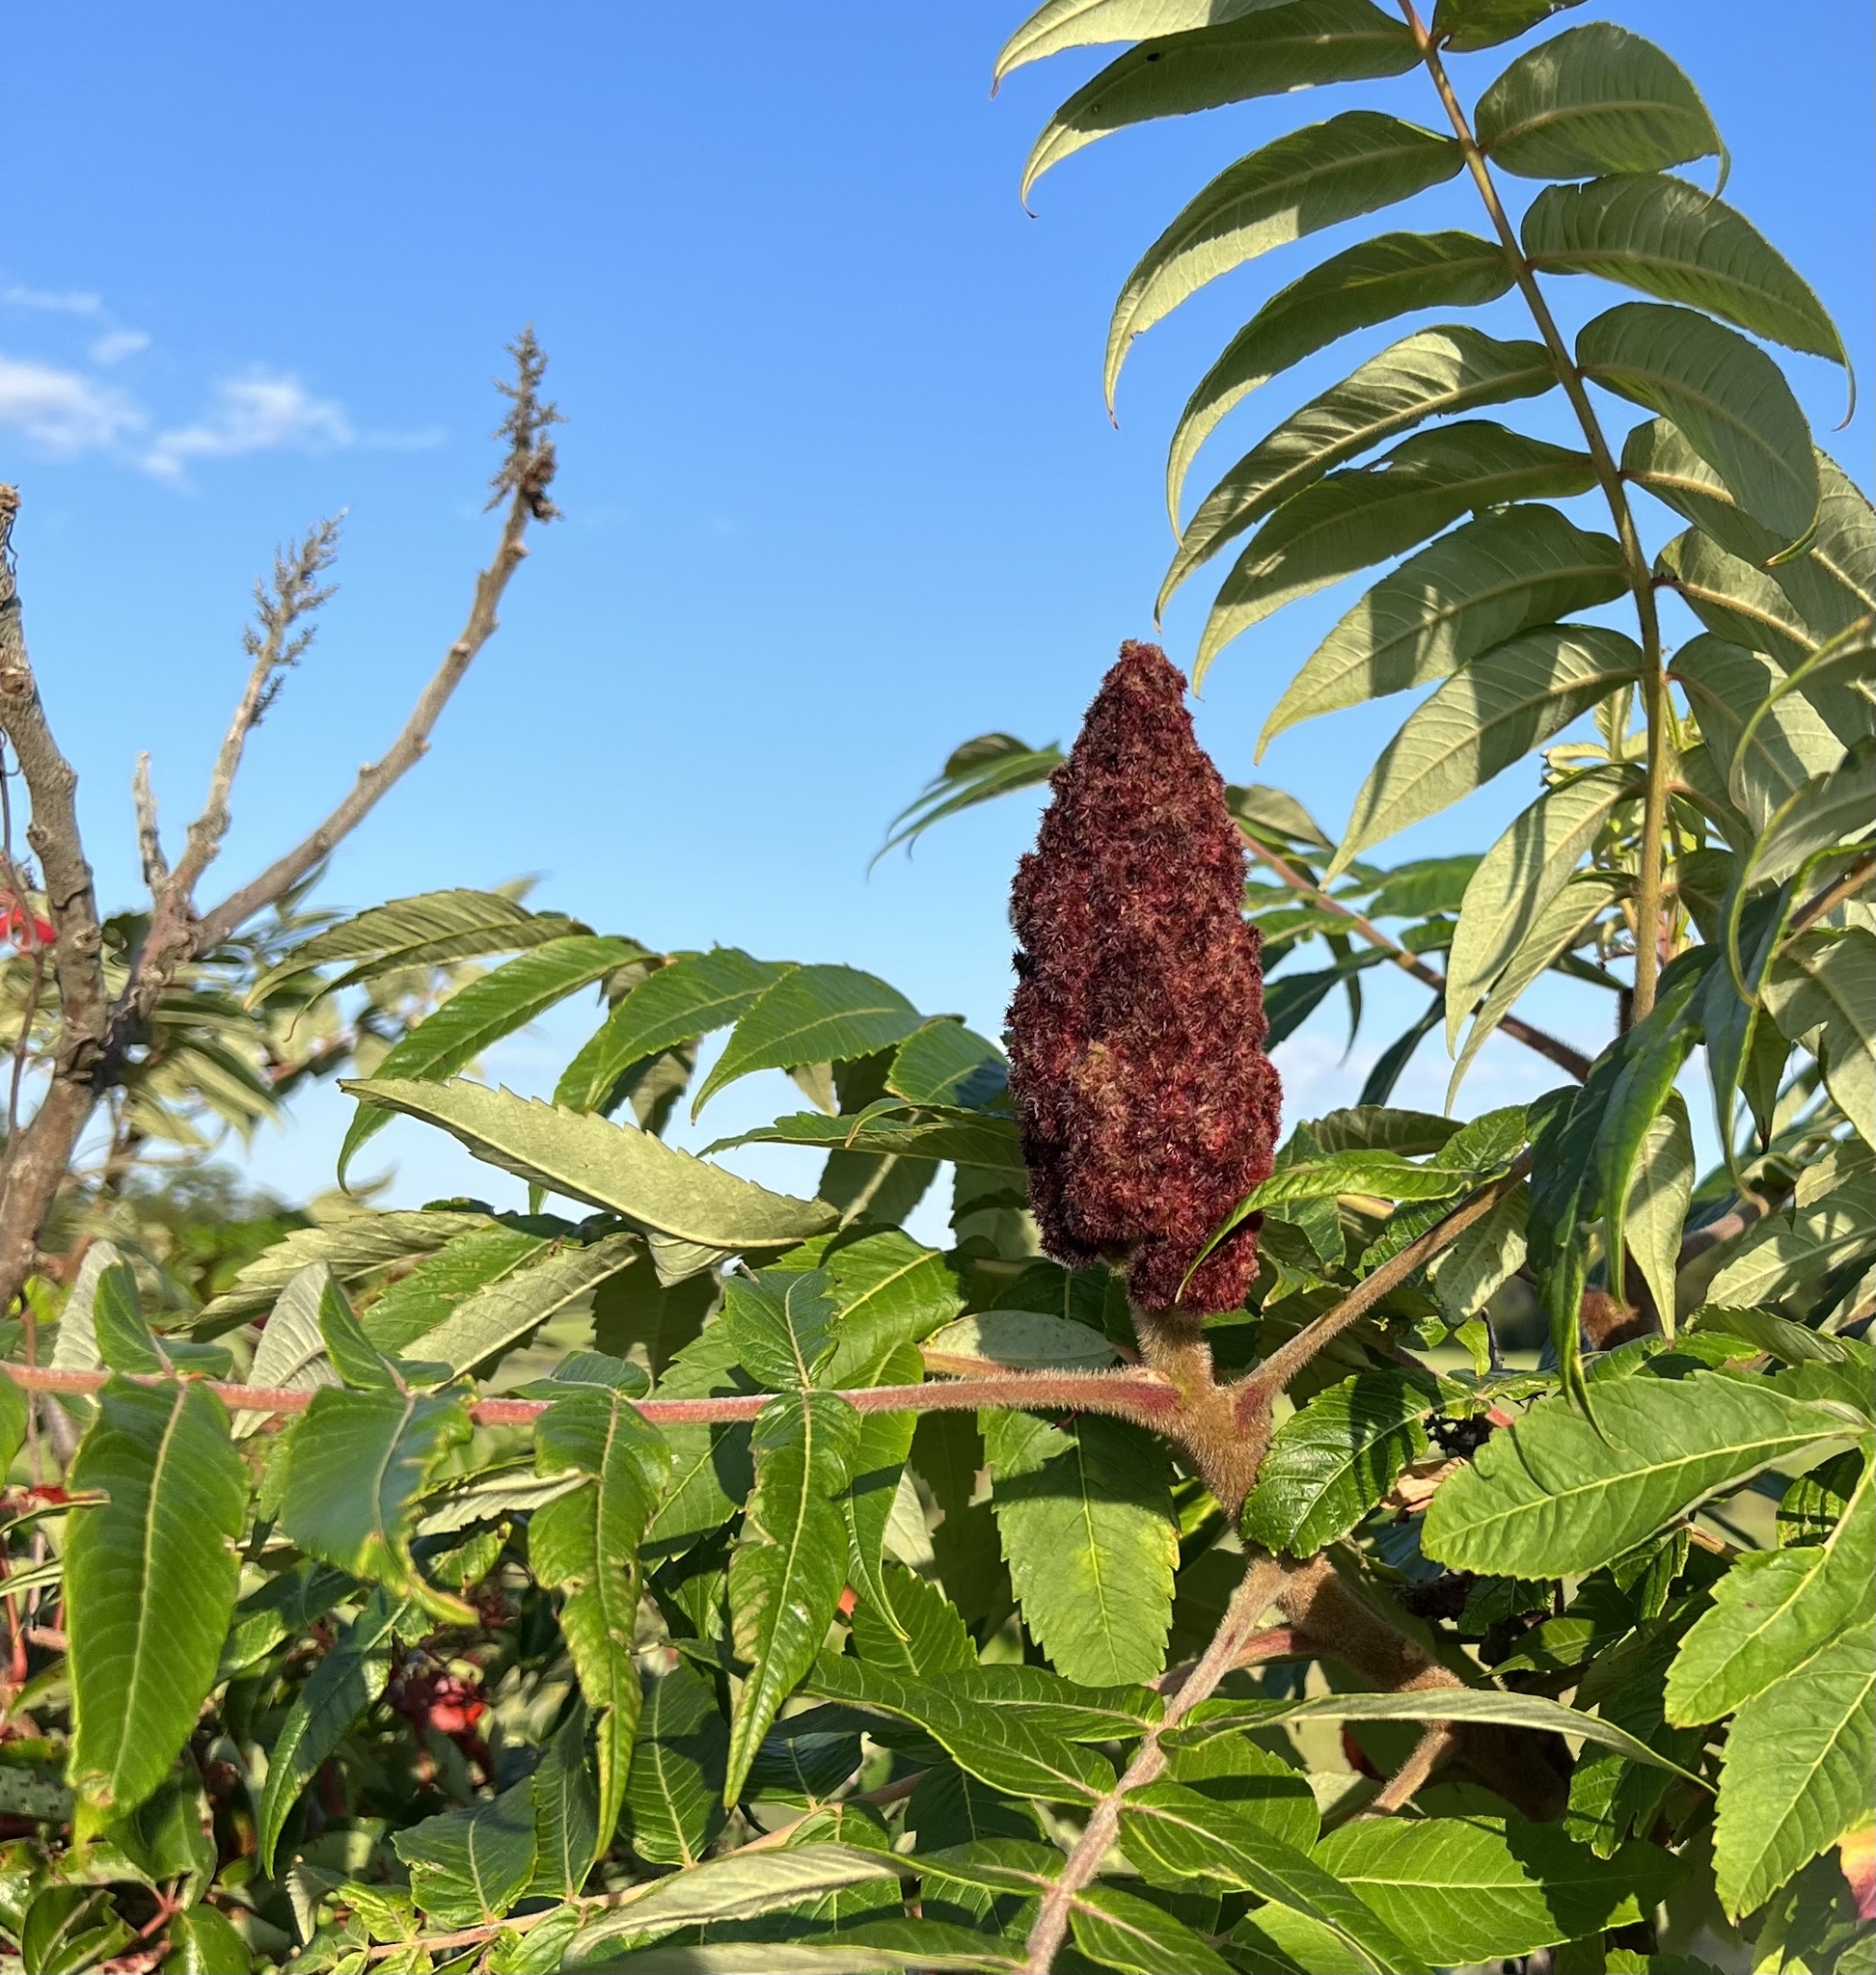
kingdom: Plantae
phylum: Tracheophyta
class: Magnoliopsida
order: Sapindales
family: Anacardiaceae
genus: Rhus
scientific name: Rhus typhina
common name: Staghorn sumac
